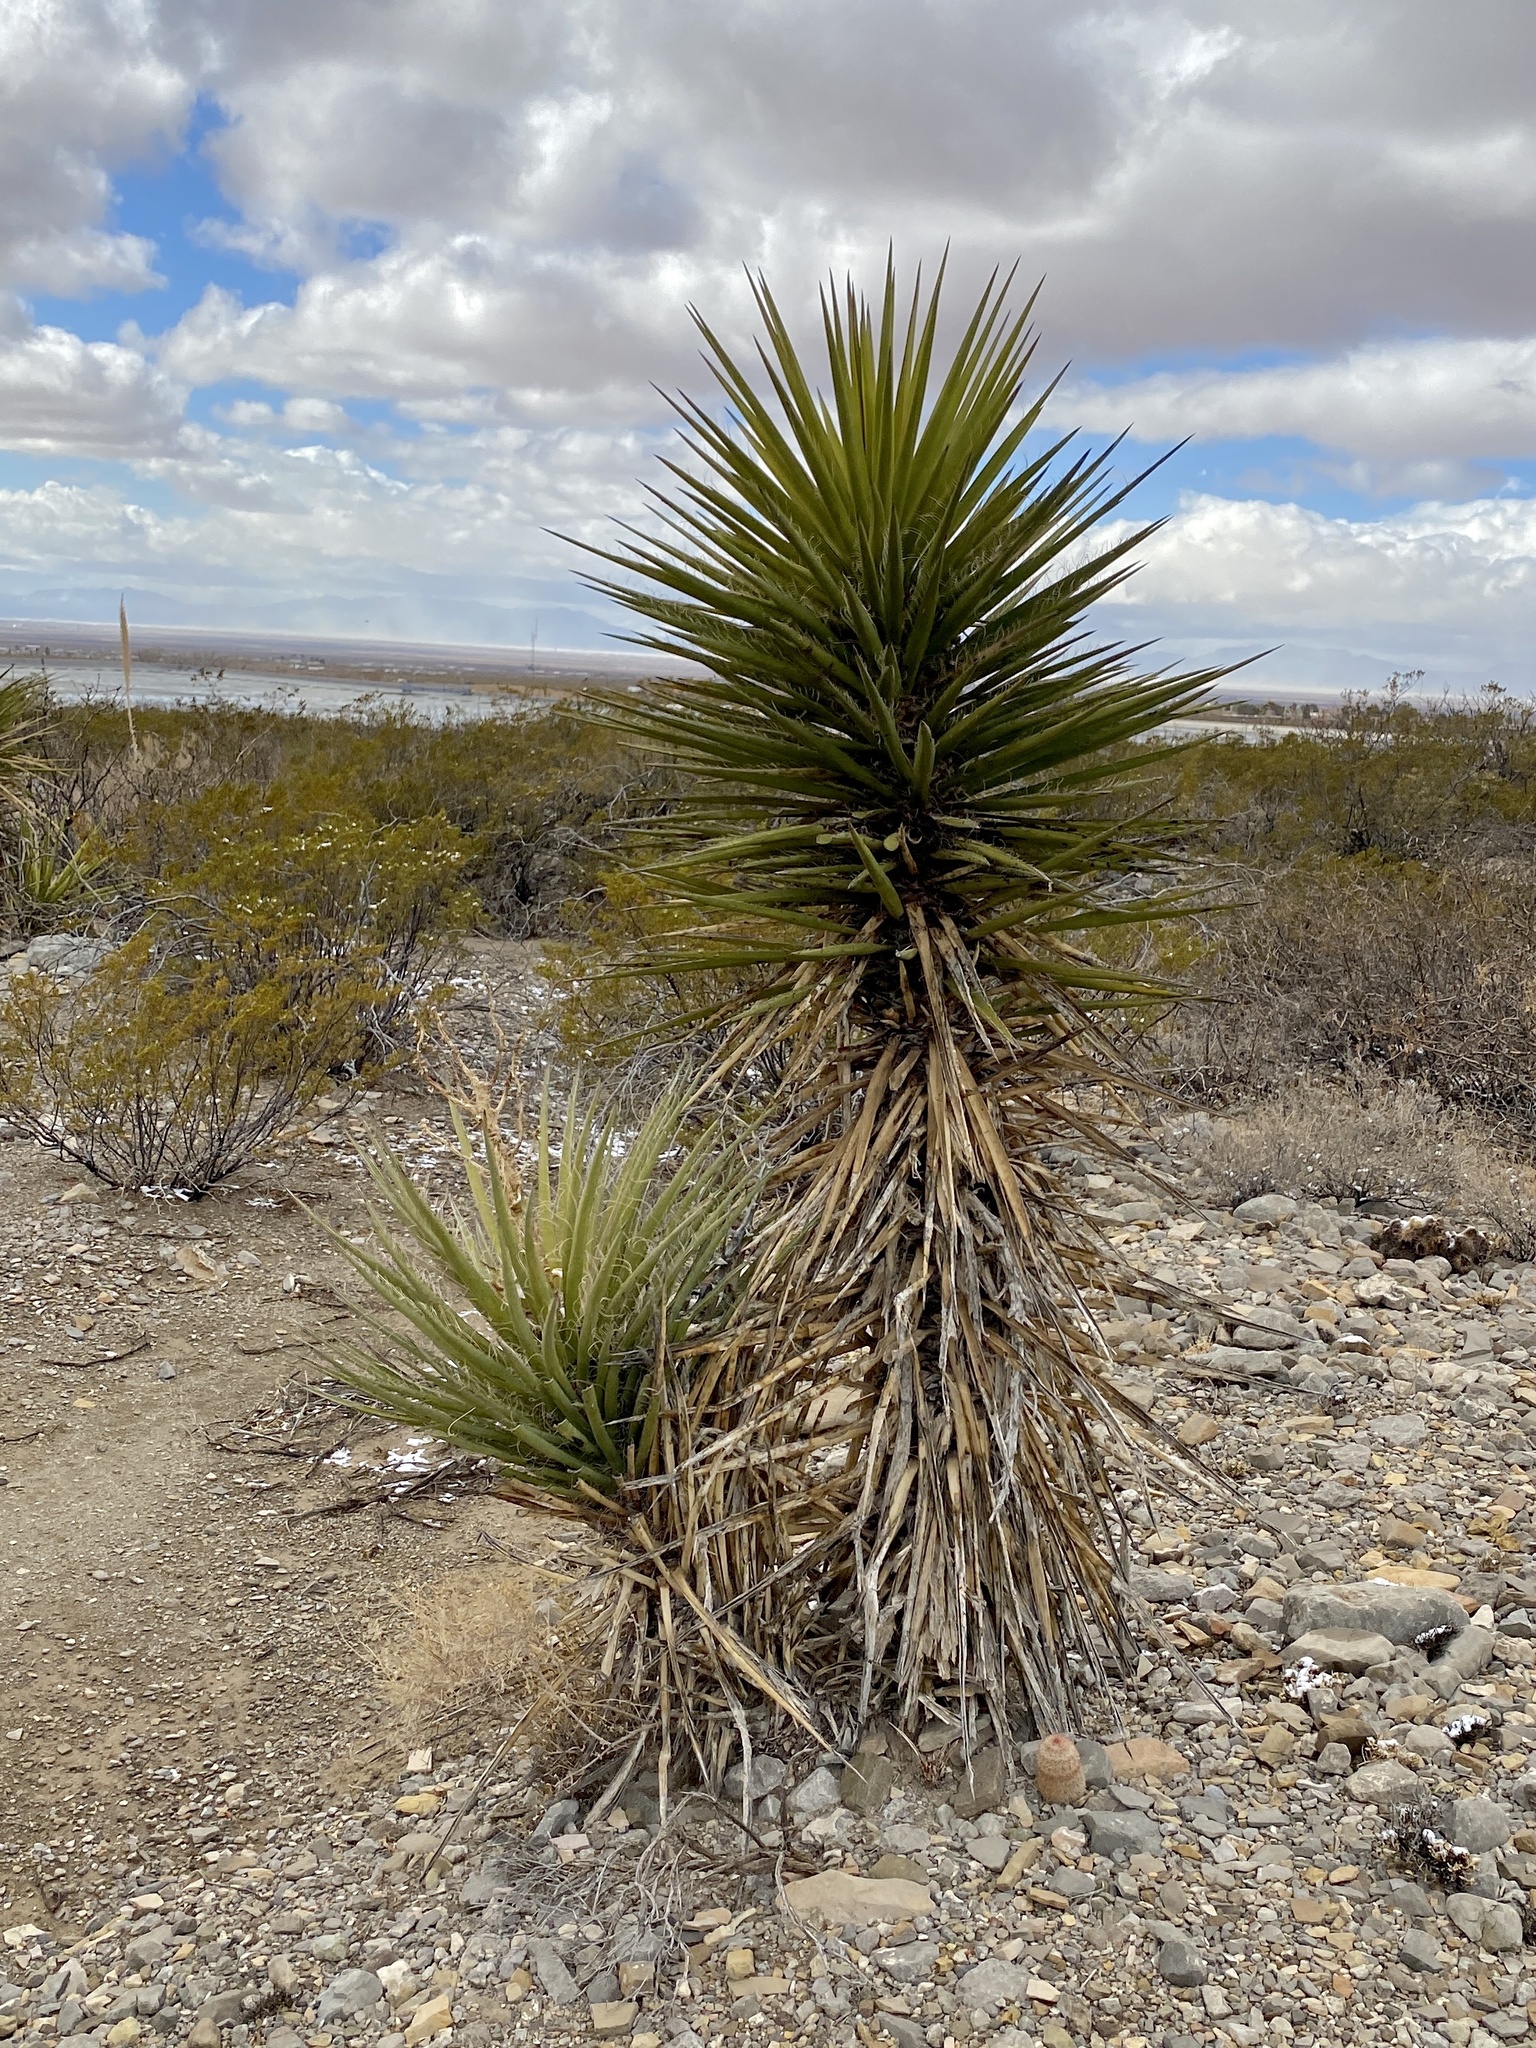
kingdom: Plantae
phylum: Tracheophyta
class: Liliopsida
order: Asparagales
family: Asparagaceae
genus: Yucca
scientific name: Yucca treculiana
